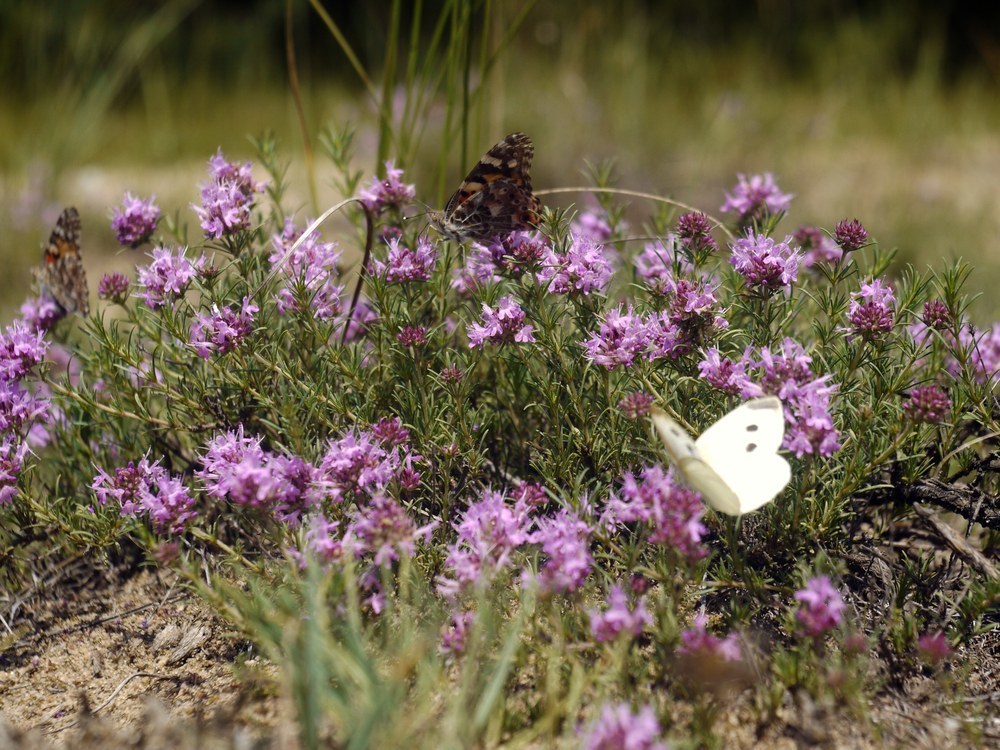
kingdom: Plantae
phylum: Tracheophyta
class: Magnoliopsida
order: Lamiales
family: Lamiaceae
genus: Thymus
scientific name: Thymus pallasianus
